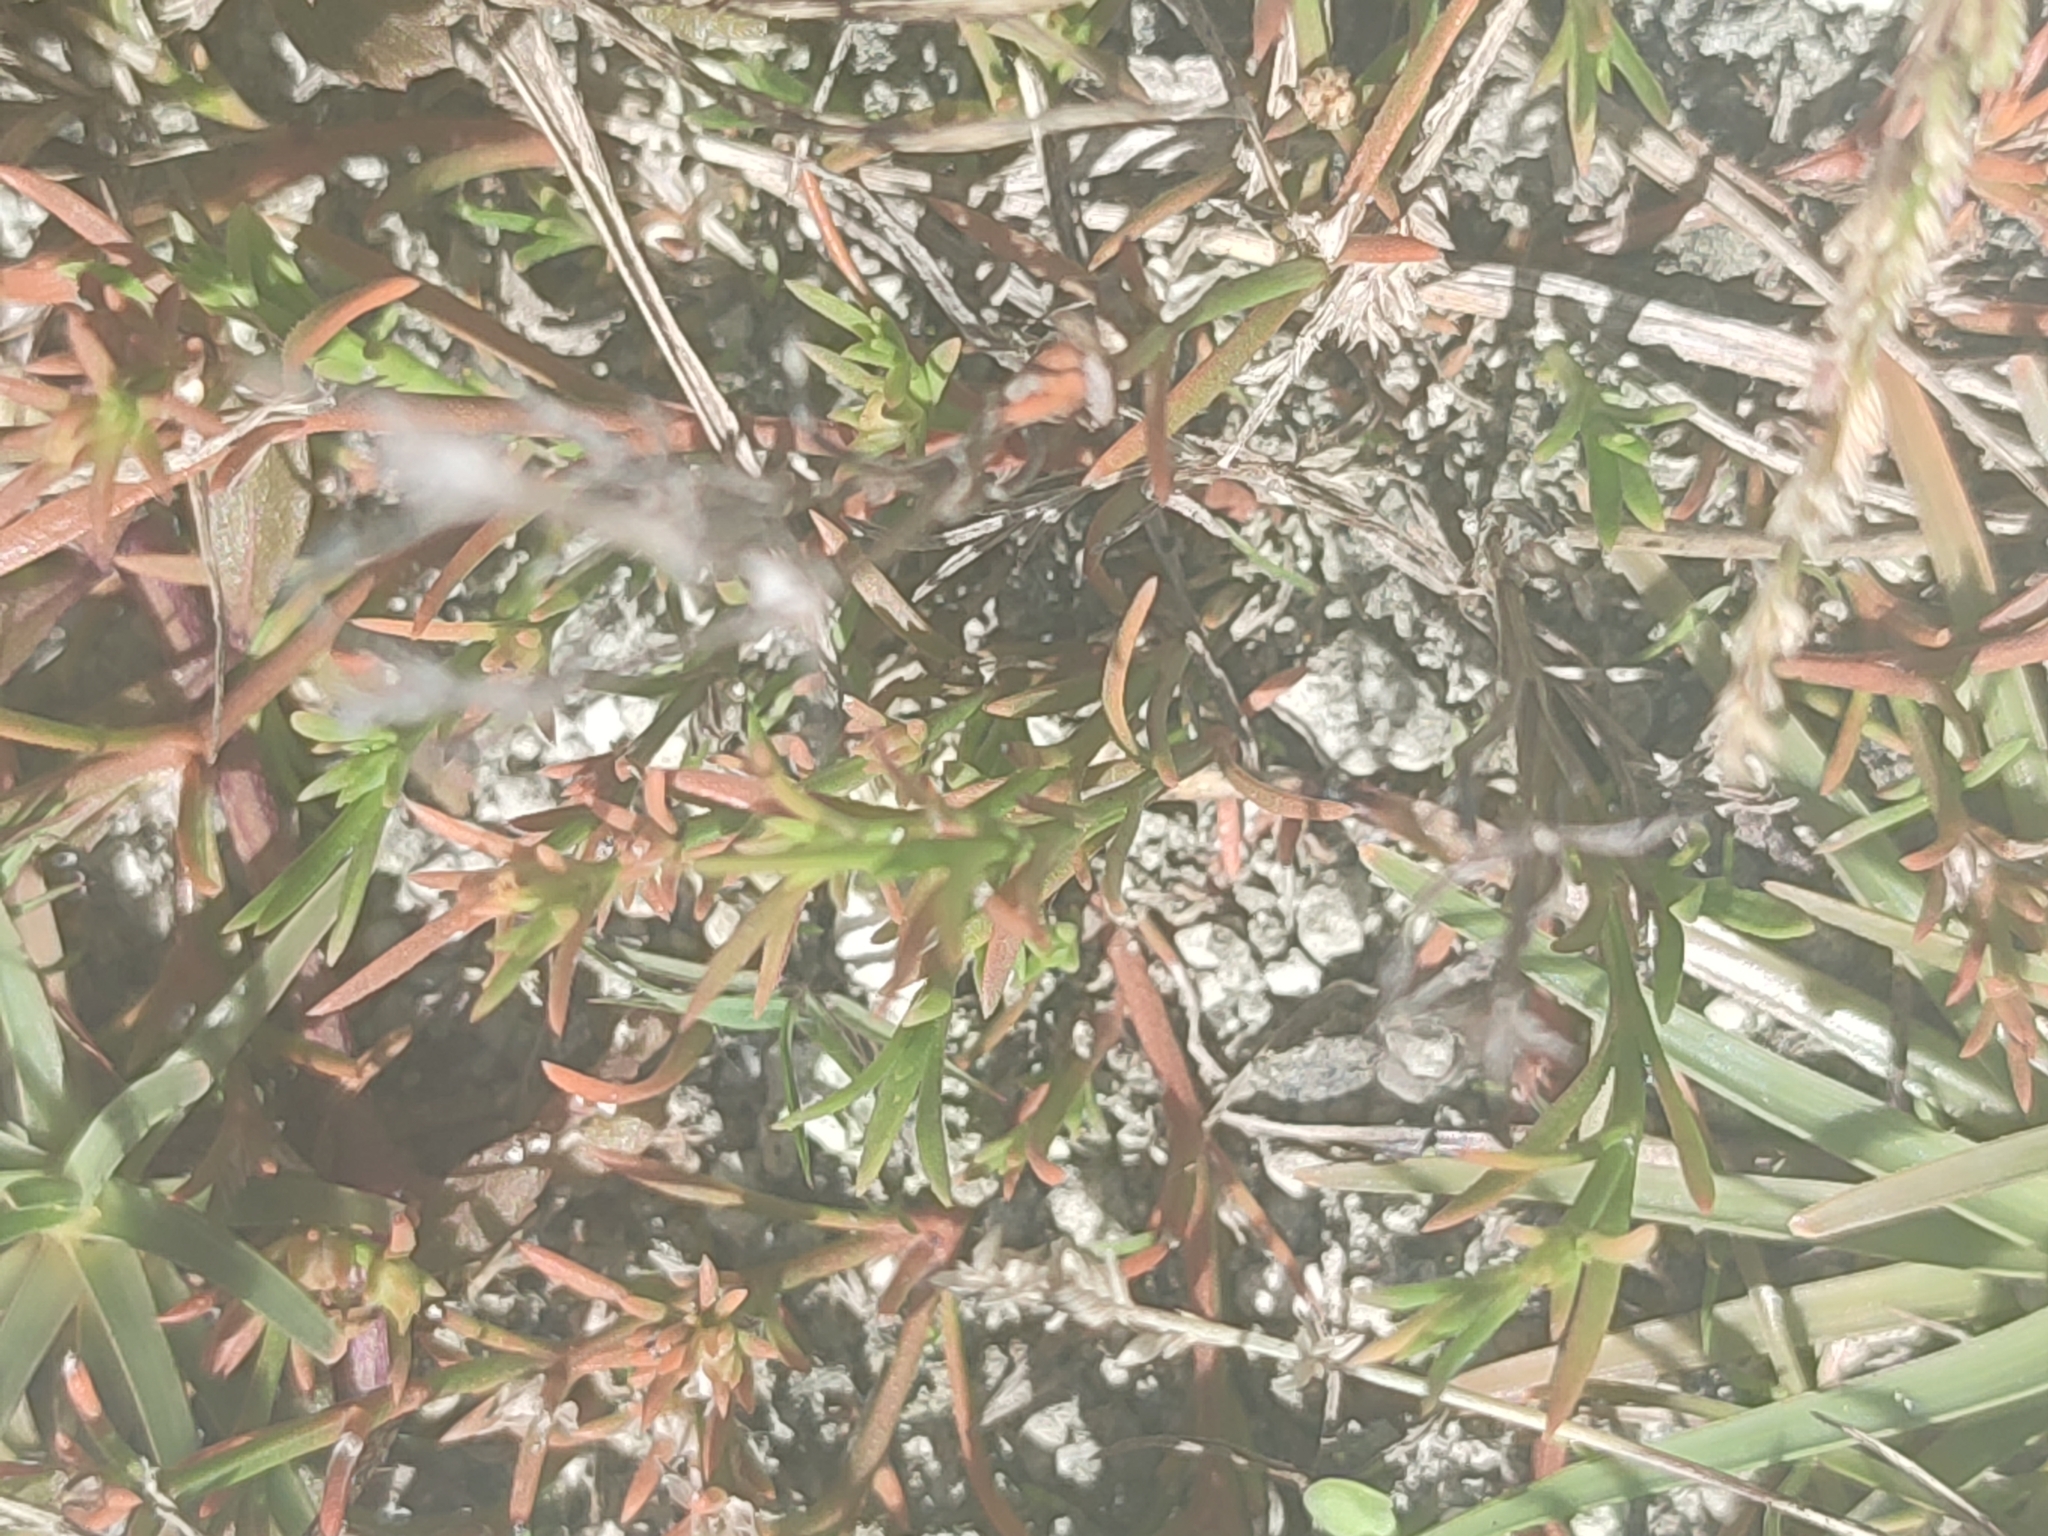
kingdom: Plantae
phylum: Tracheophyta
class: Magnoliopsida
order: Lamiales
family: Tetrachondraceae
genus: Polypremum
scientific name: Polypremum procumbens
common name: Juniper-leaf
